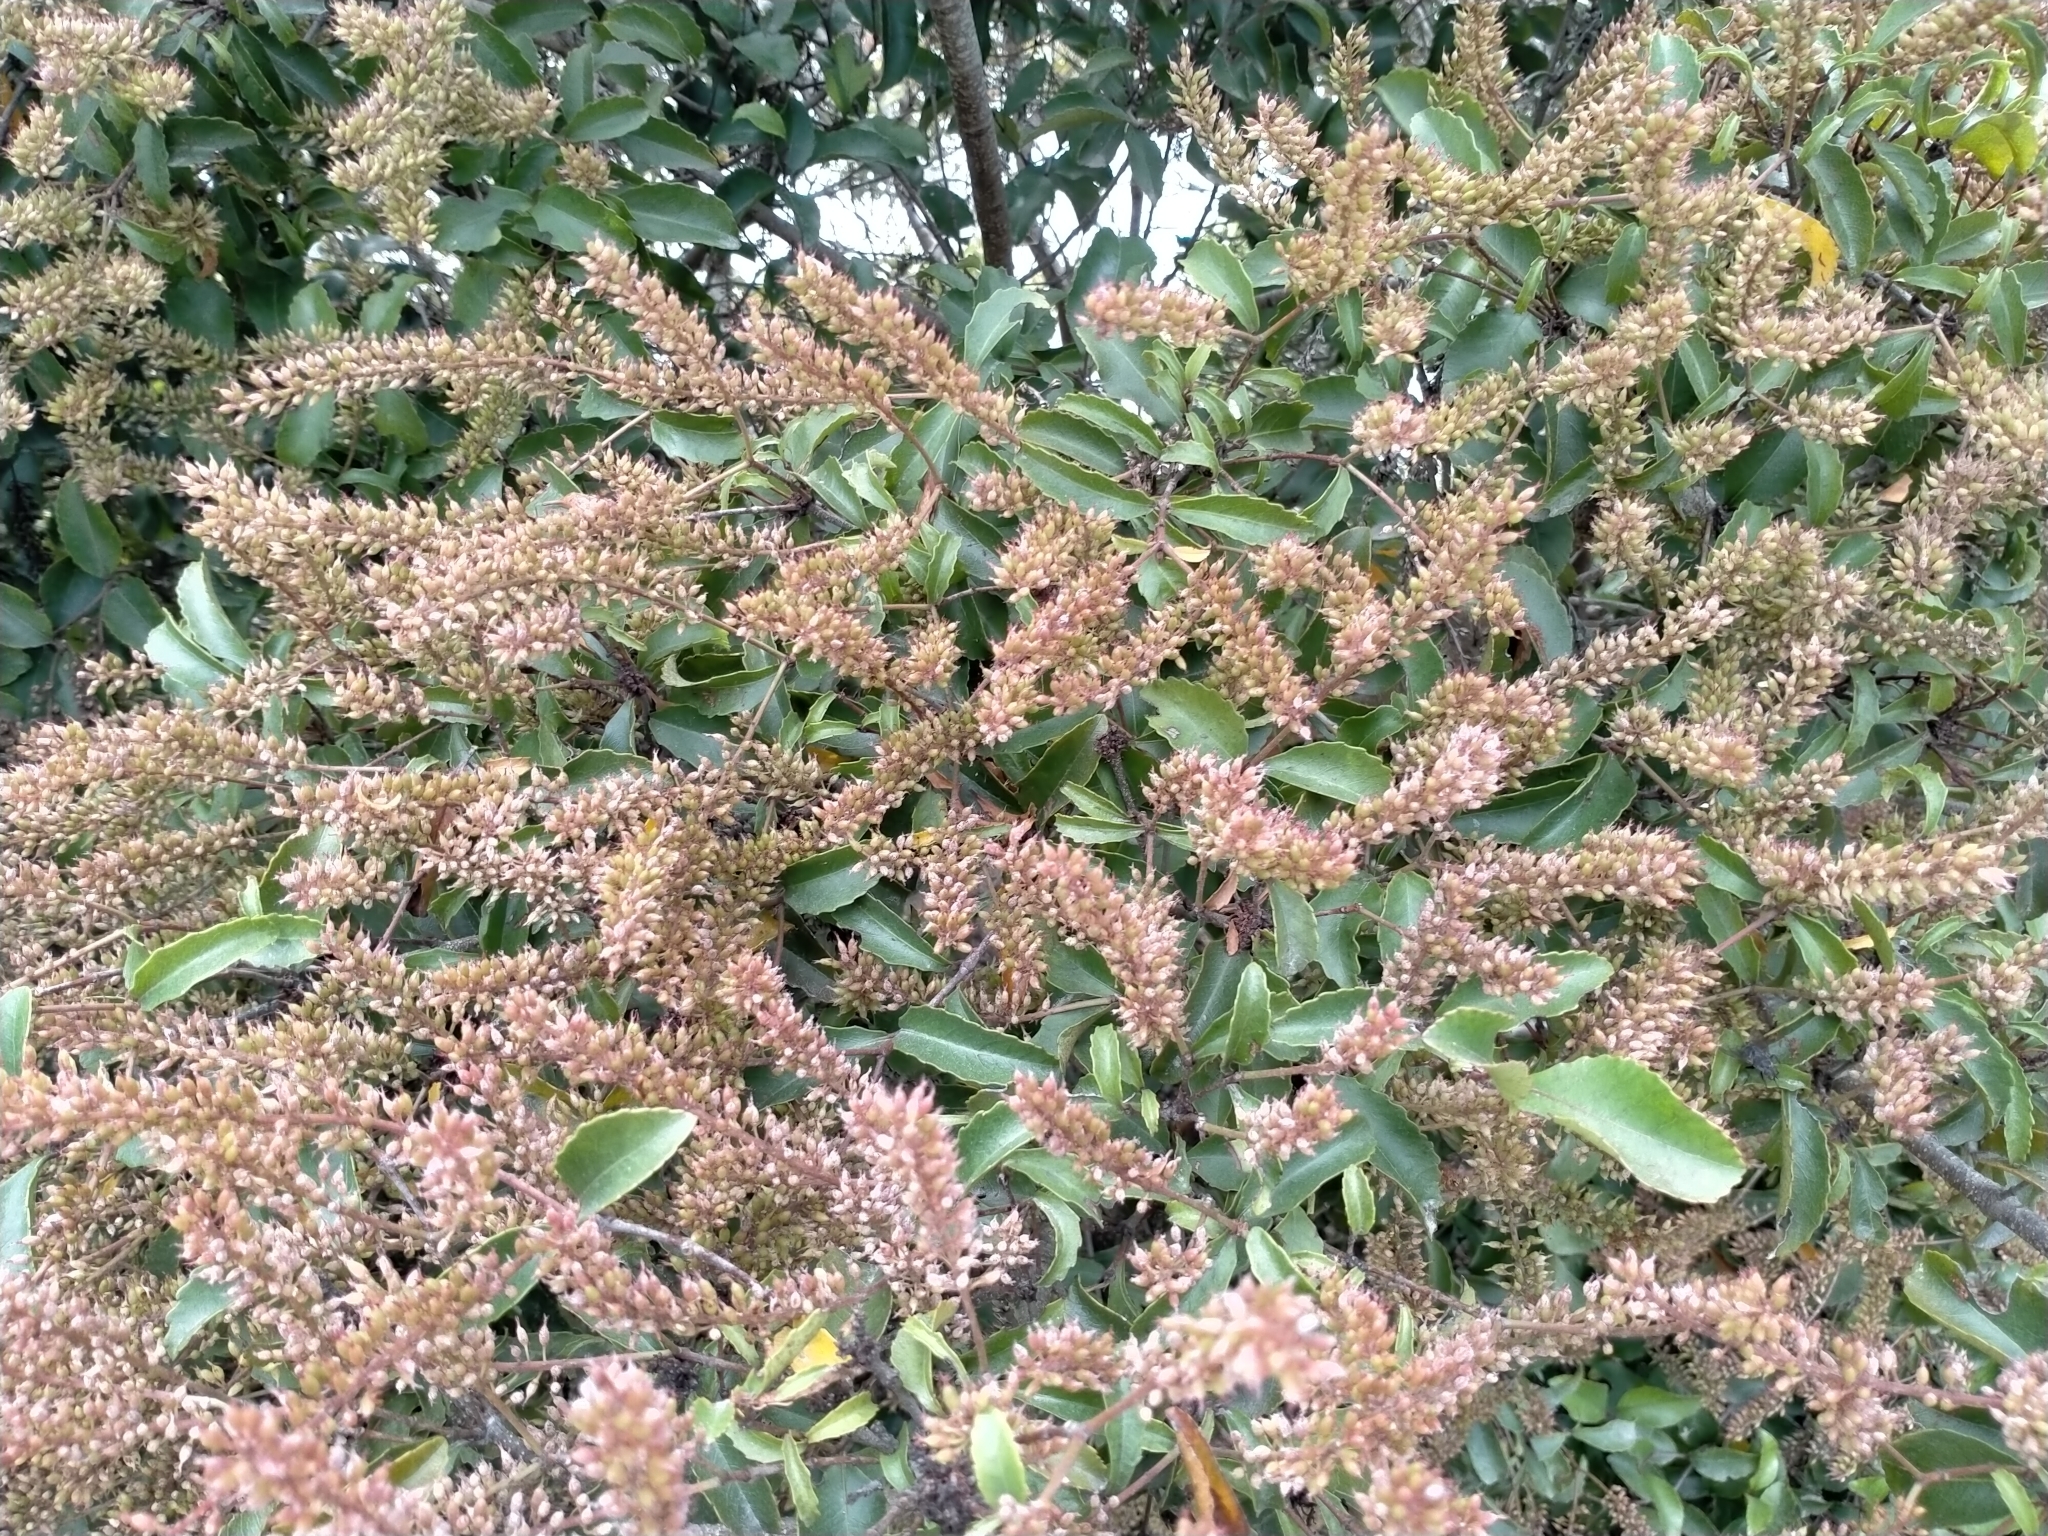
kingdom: Plantae
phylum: Tracheophyta
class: Magnoliopsida
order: Oxalidales
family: Cunoniaceae
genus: Pterophylla
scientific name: Pterophylla racemosa
